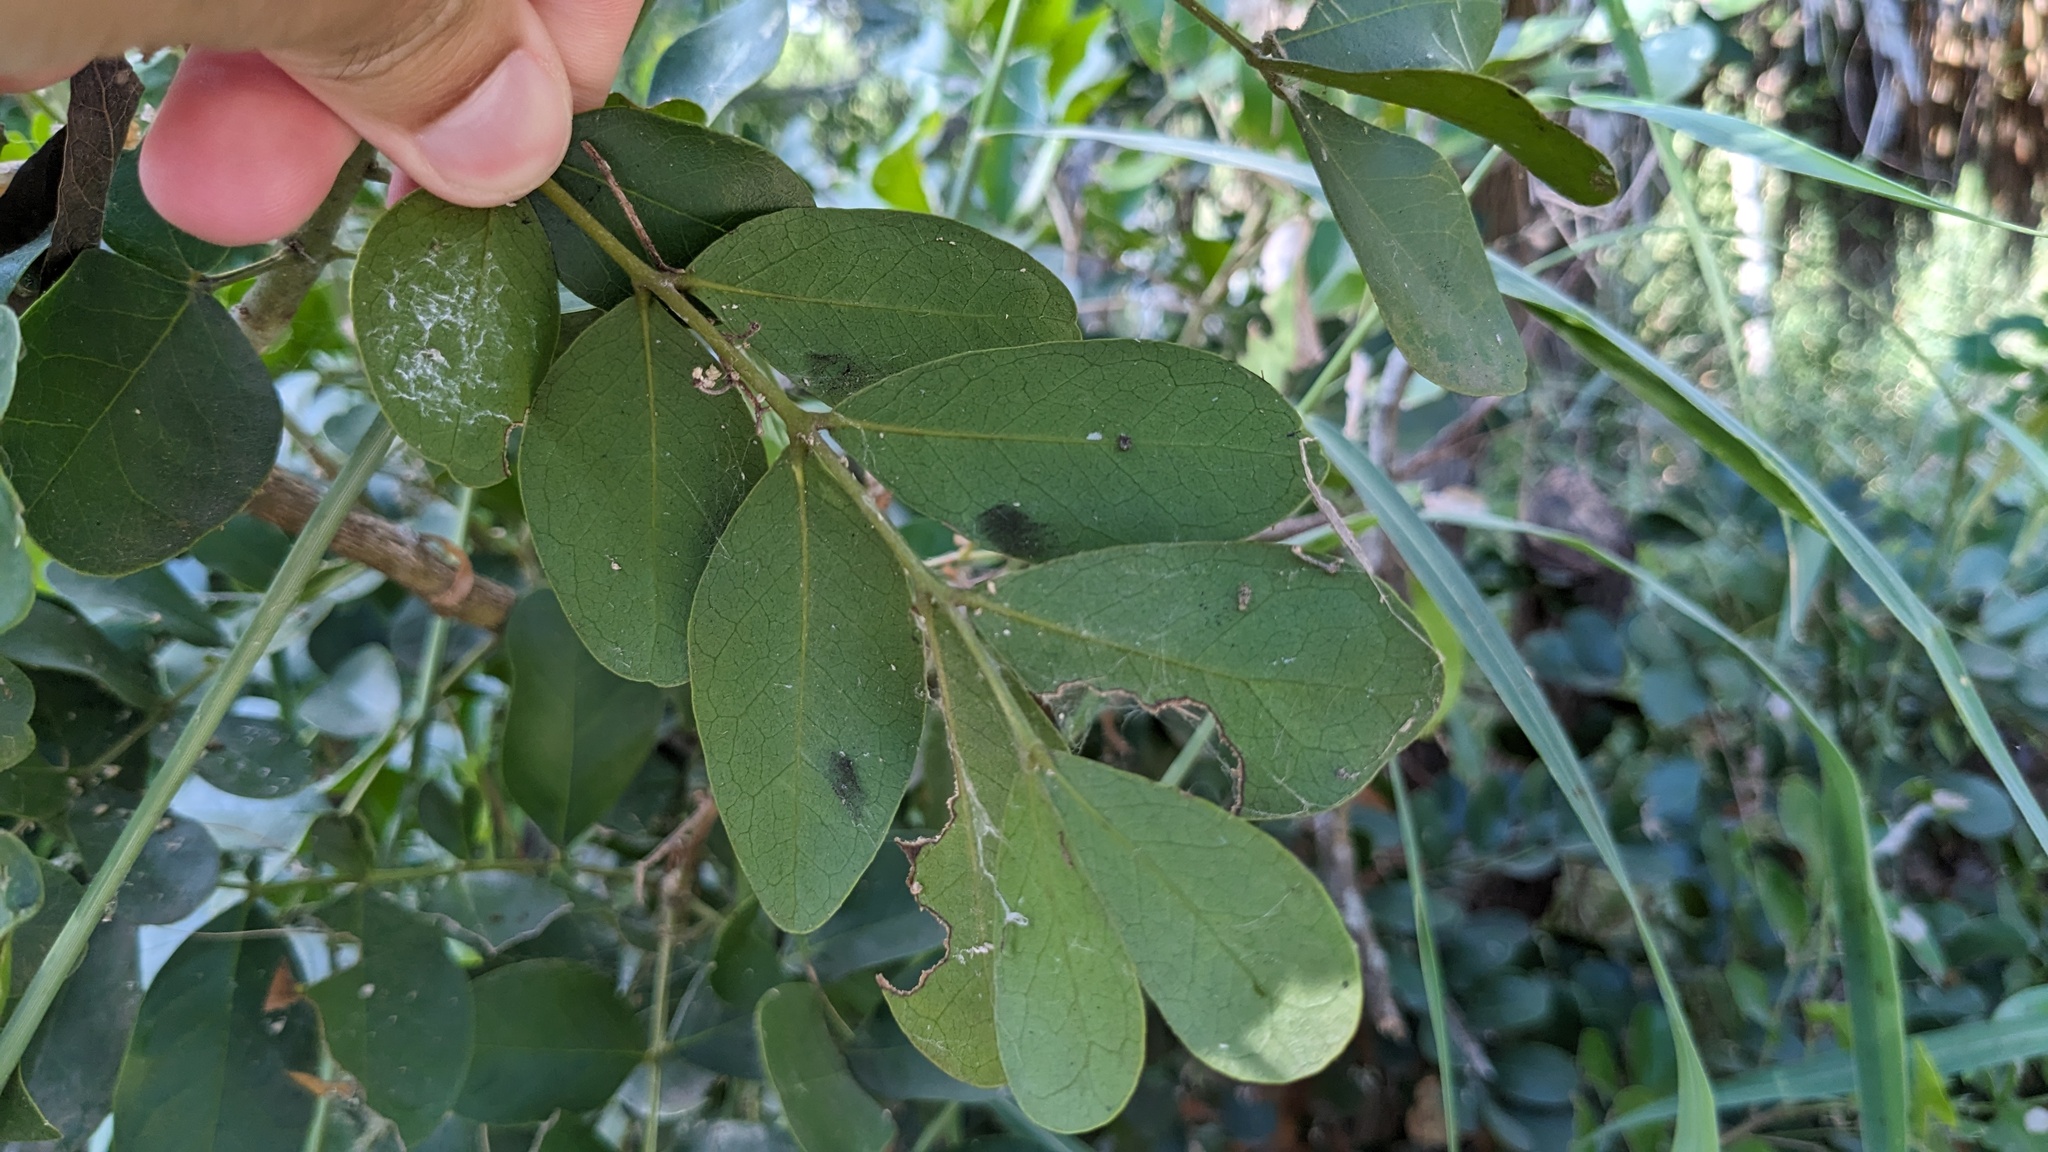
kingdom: Plantae
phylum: Tracheophyta
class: Magnoliopsida
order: Fabales
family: Fabaceae
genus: Dermatophyllum
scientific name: Dermatophyllum secundiflorum
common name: Texas-mountain-laurel
